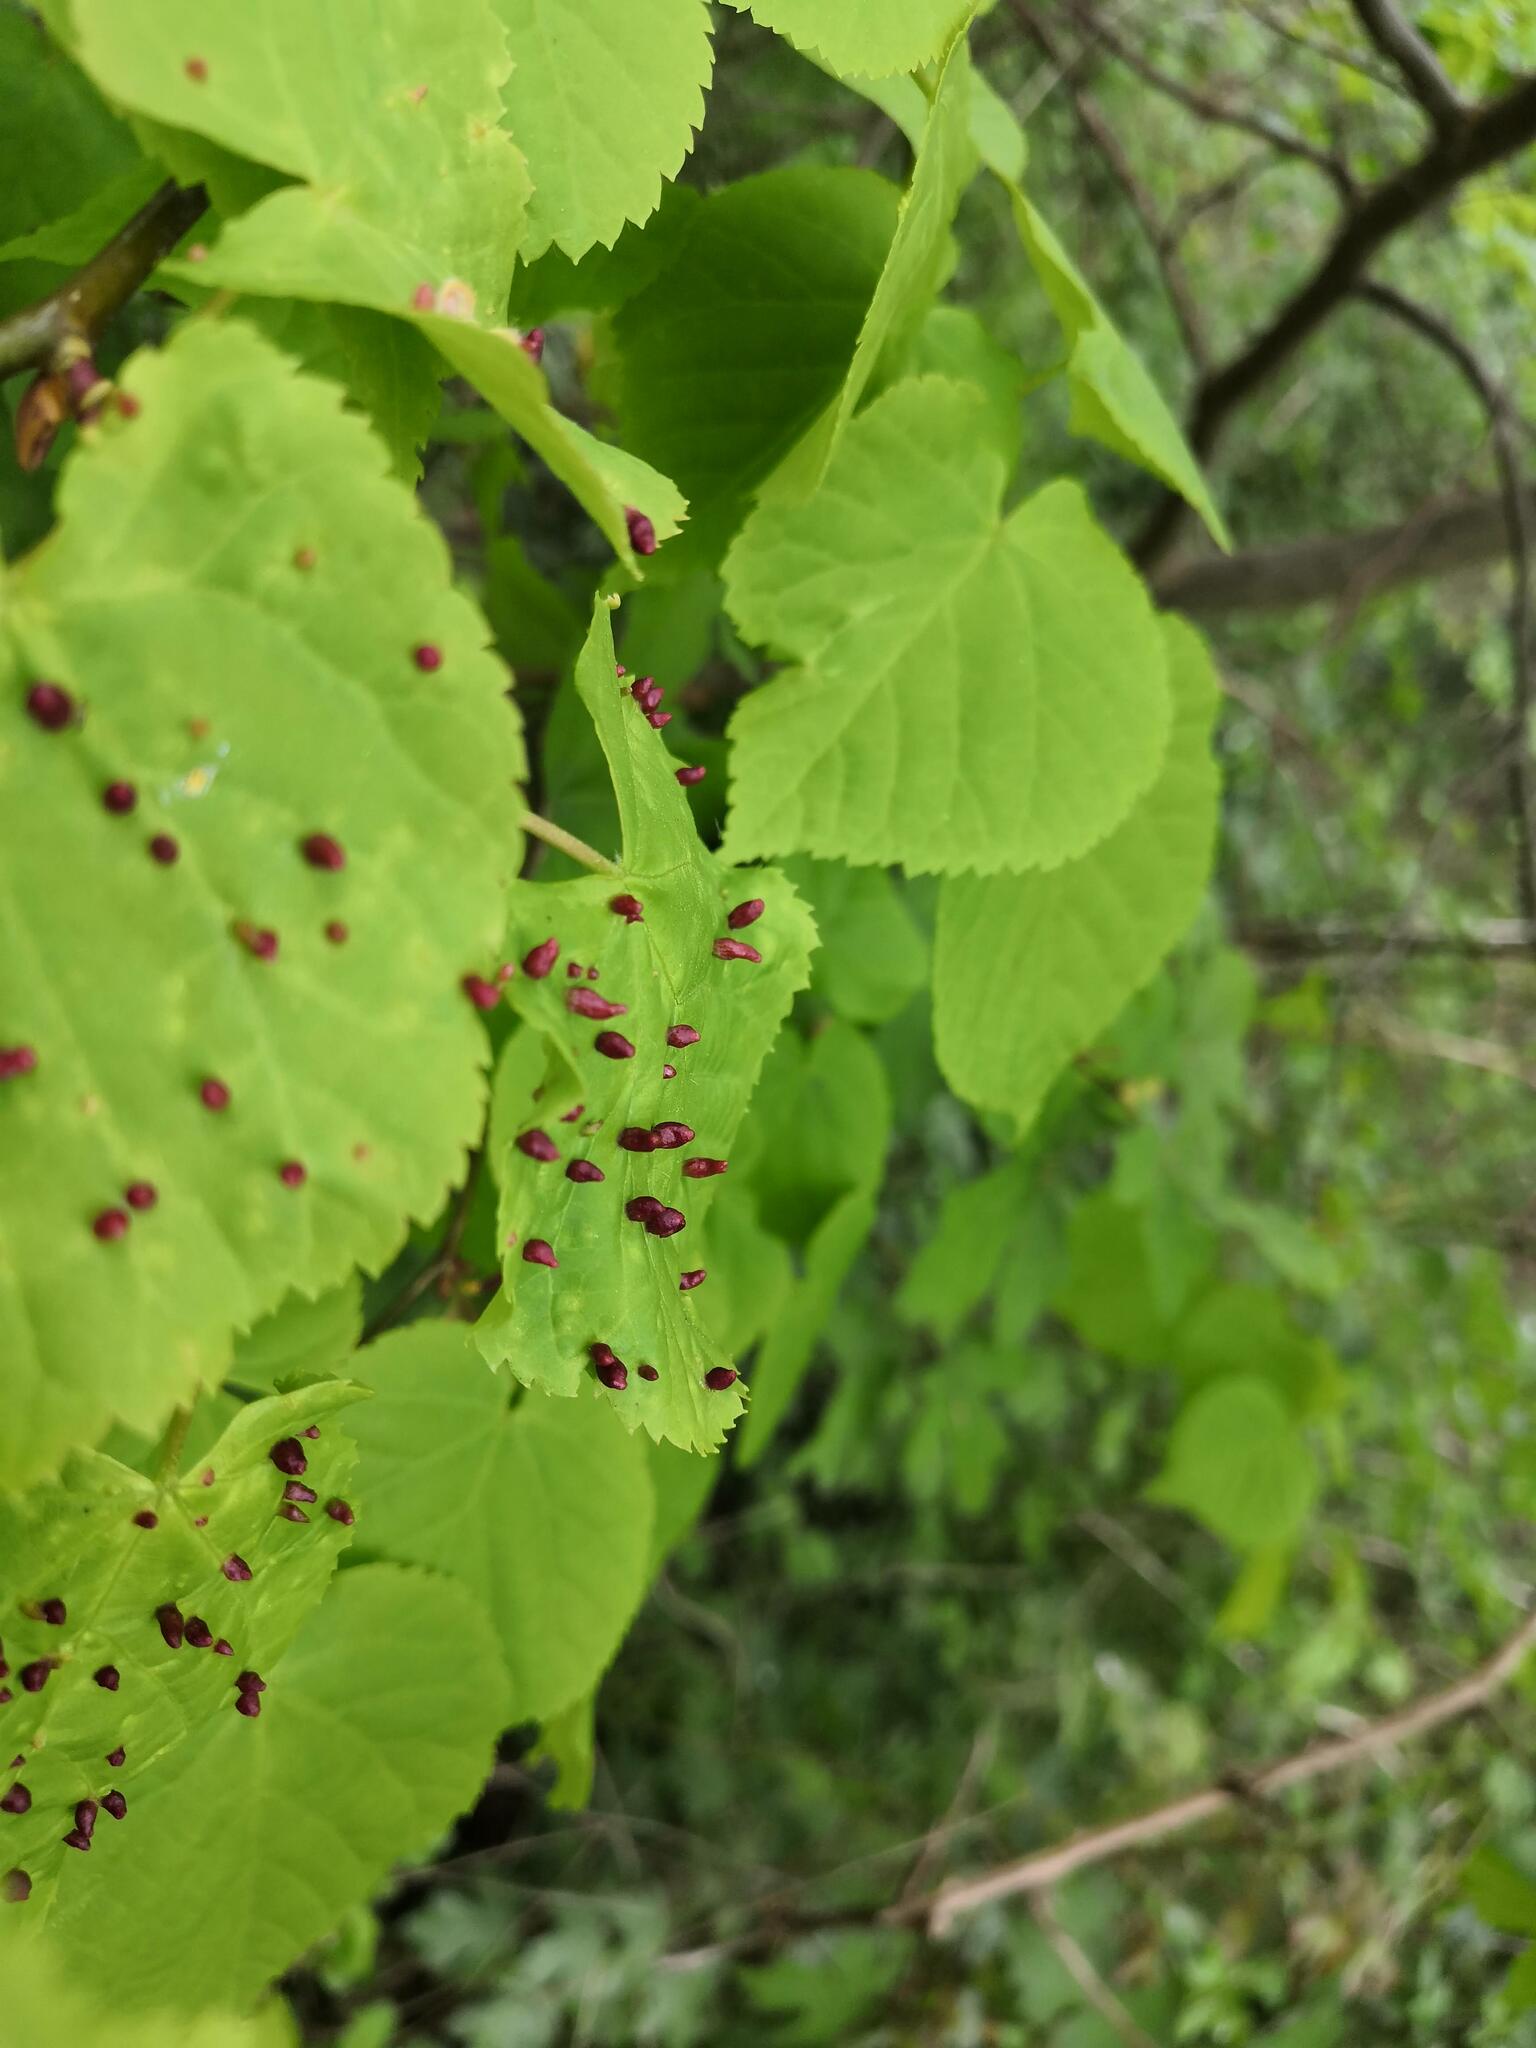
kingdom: Animalia
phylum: Arthropoda
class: Arachnida
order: Trombidiformes
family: Eriophyidae
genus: Eriophyes
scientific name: Eriophyes tiliae
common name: Red nail gall mite
